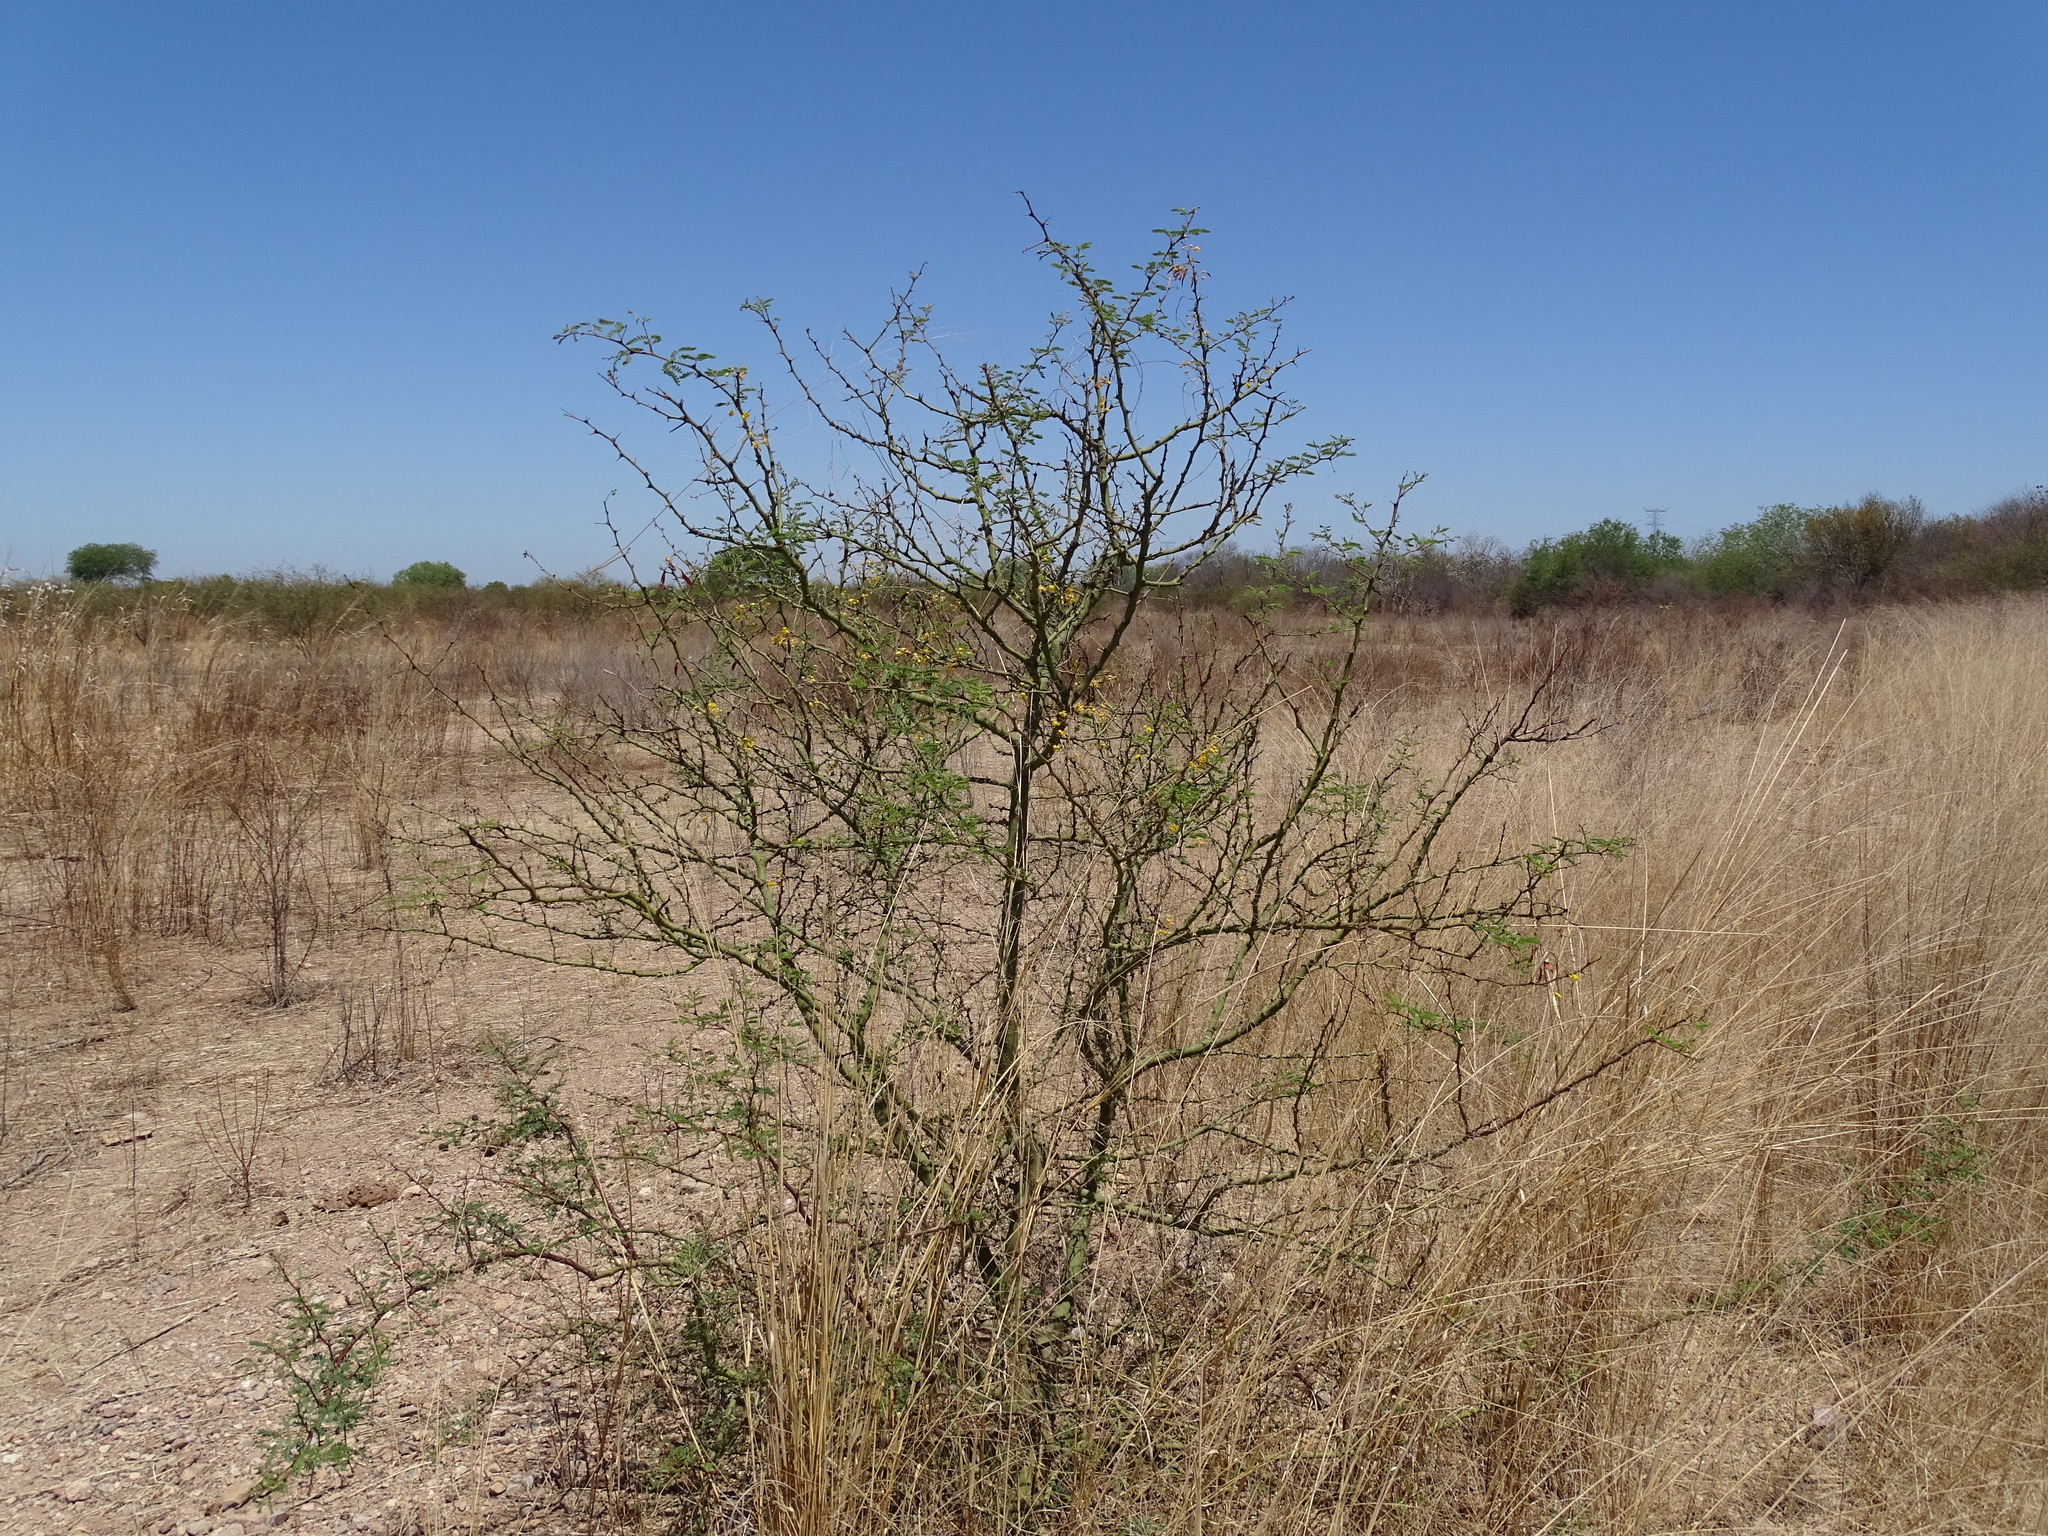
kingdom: Plantae
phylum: Tracheophyta
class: Magnoliopsida
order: Fabales
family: Fabaceae
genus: Vachellia
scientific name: Vachellia farnesiana
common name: Sweet acacia
